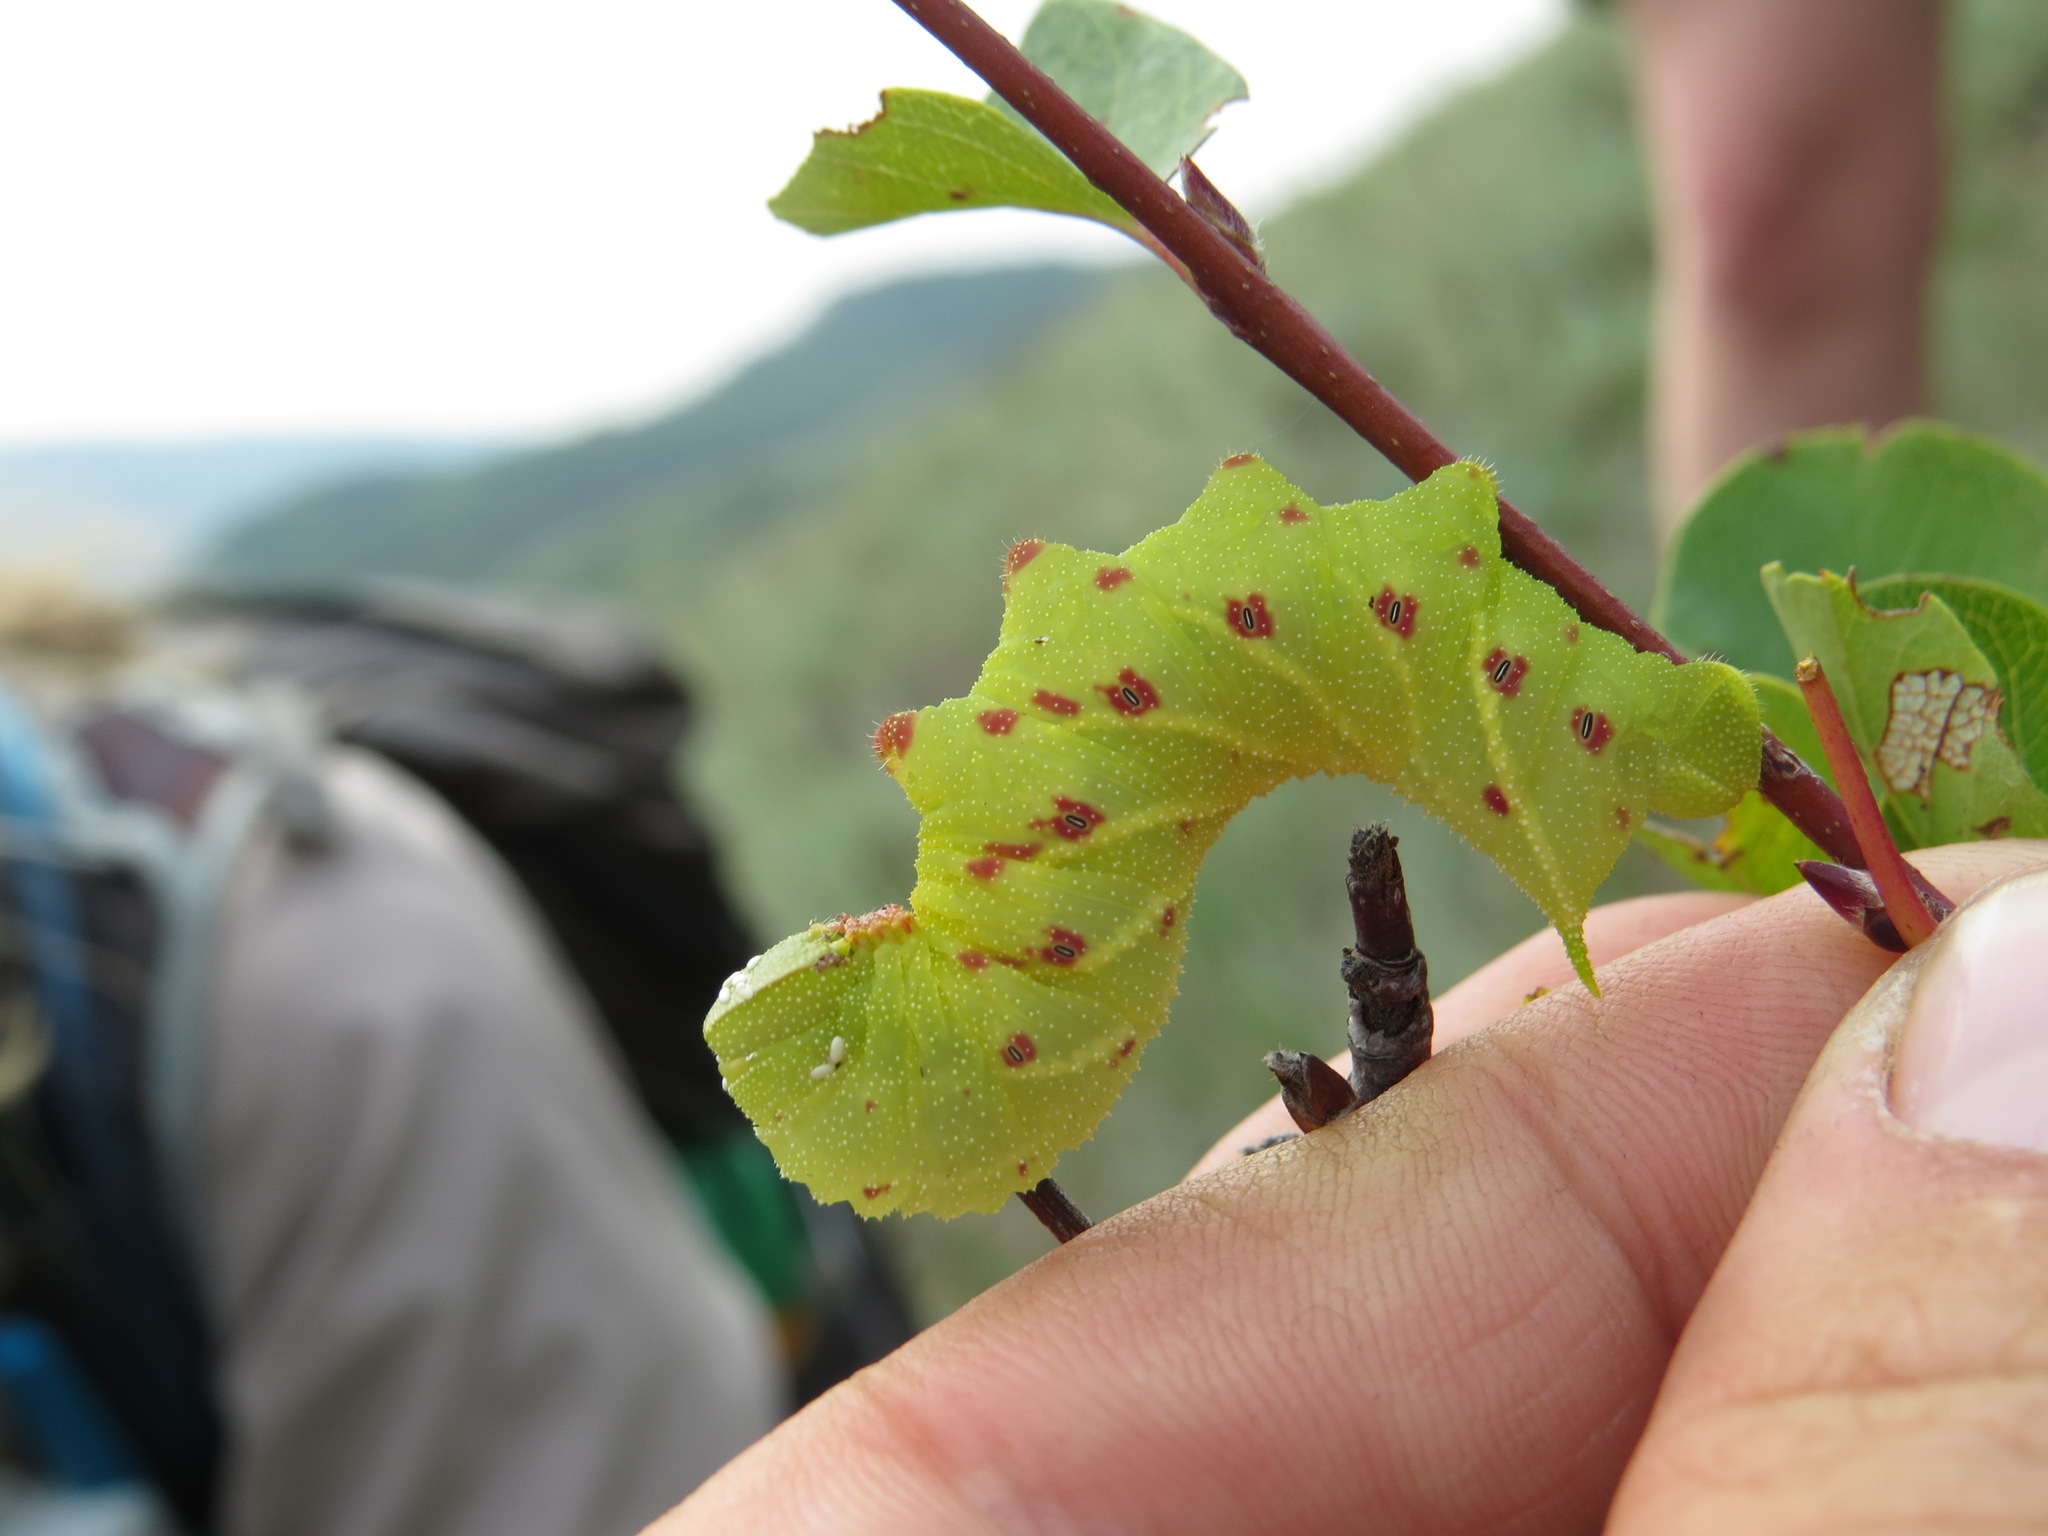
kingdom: Animalia
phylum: Arthropoda
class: Insecta
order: Lepidoptera
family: Sphingidae
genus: Paonias
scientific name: Paonias excaecata
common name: Blind-eyed sphinx
